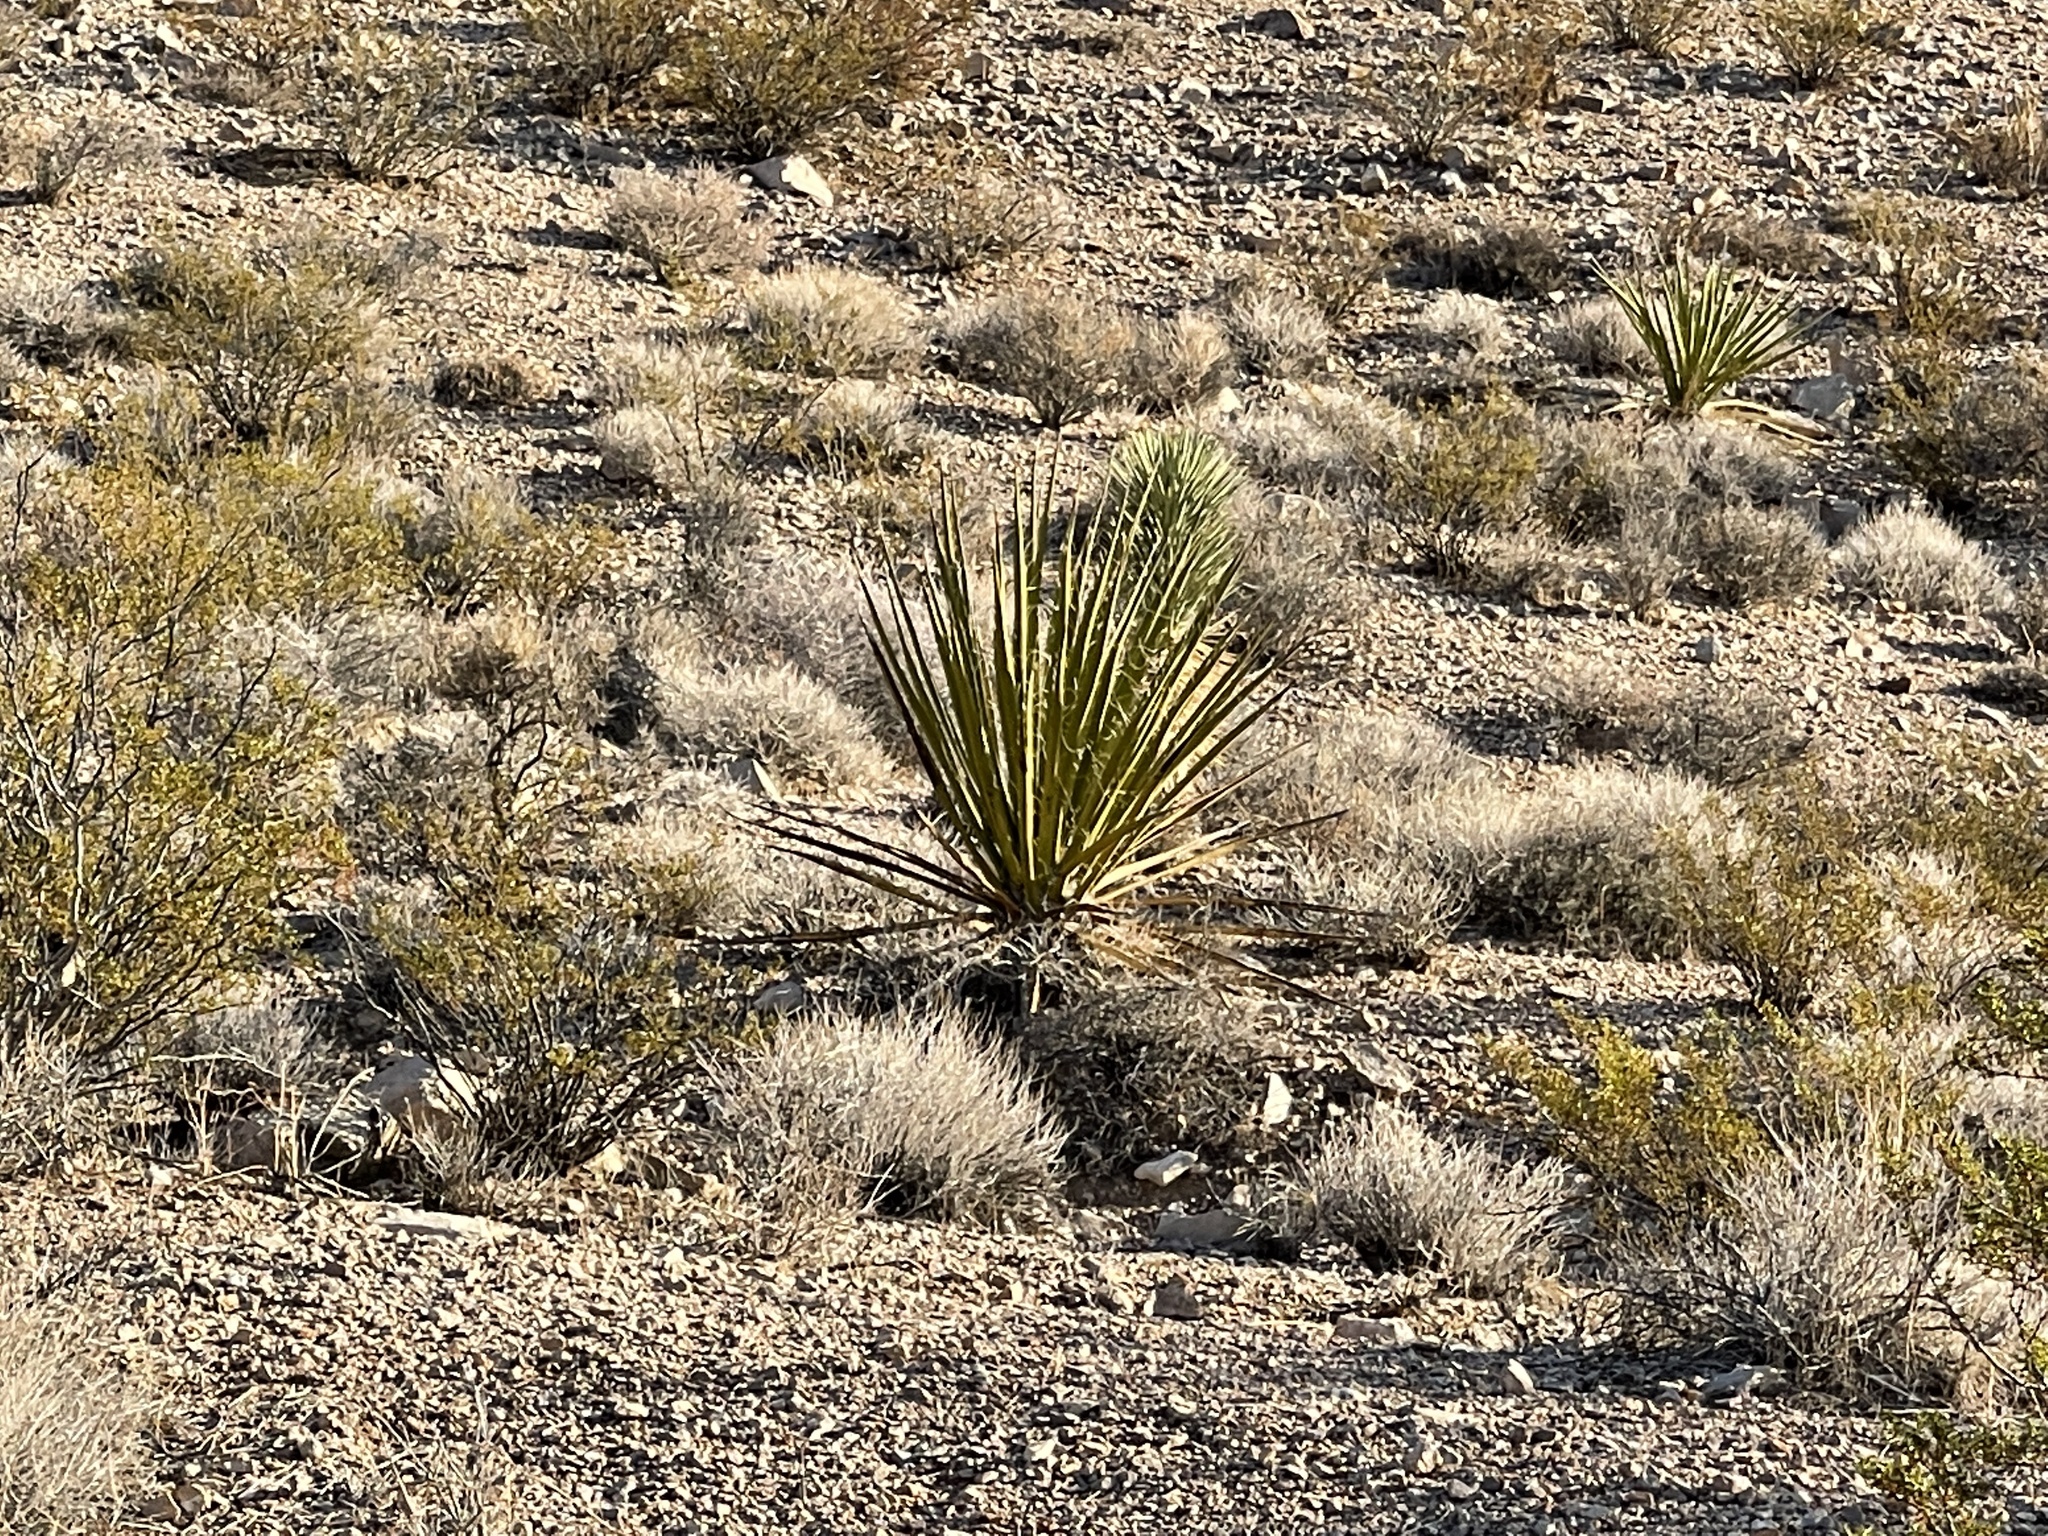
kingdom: Plantae
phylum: Tracheophyta
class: Liliopsida
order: Asparagales
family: Asparagaceae
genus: Yucca
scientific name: Yucca schidigera
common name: Mojave yucca
